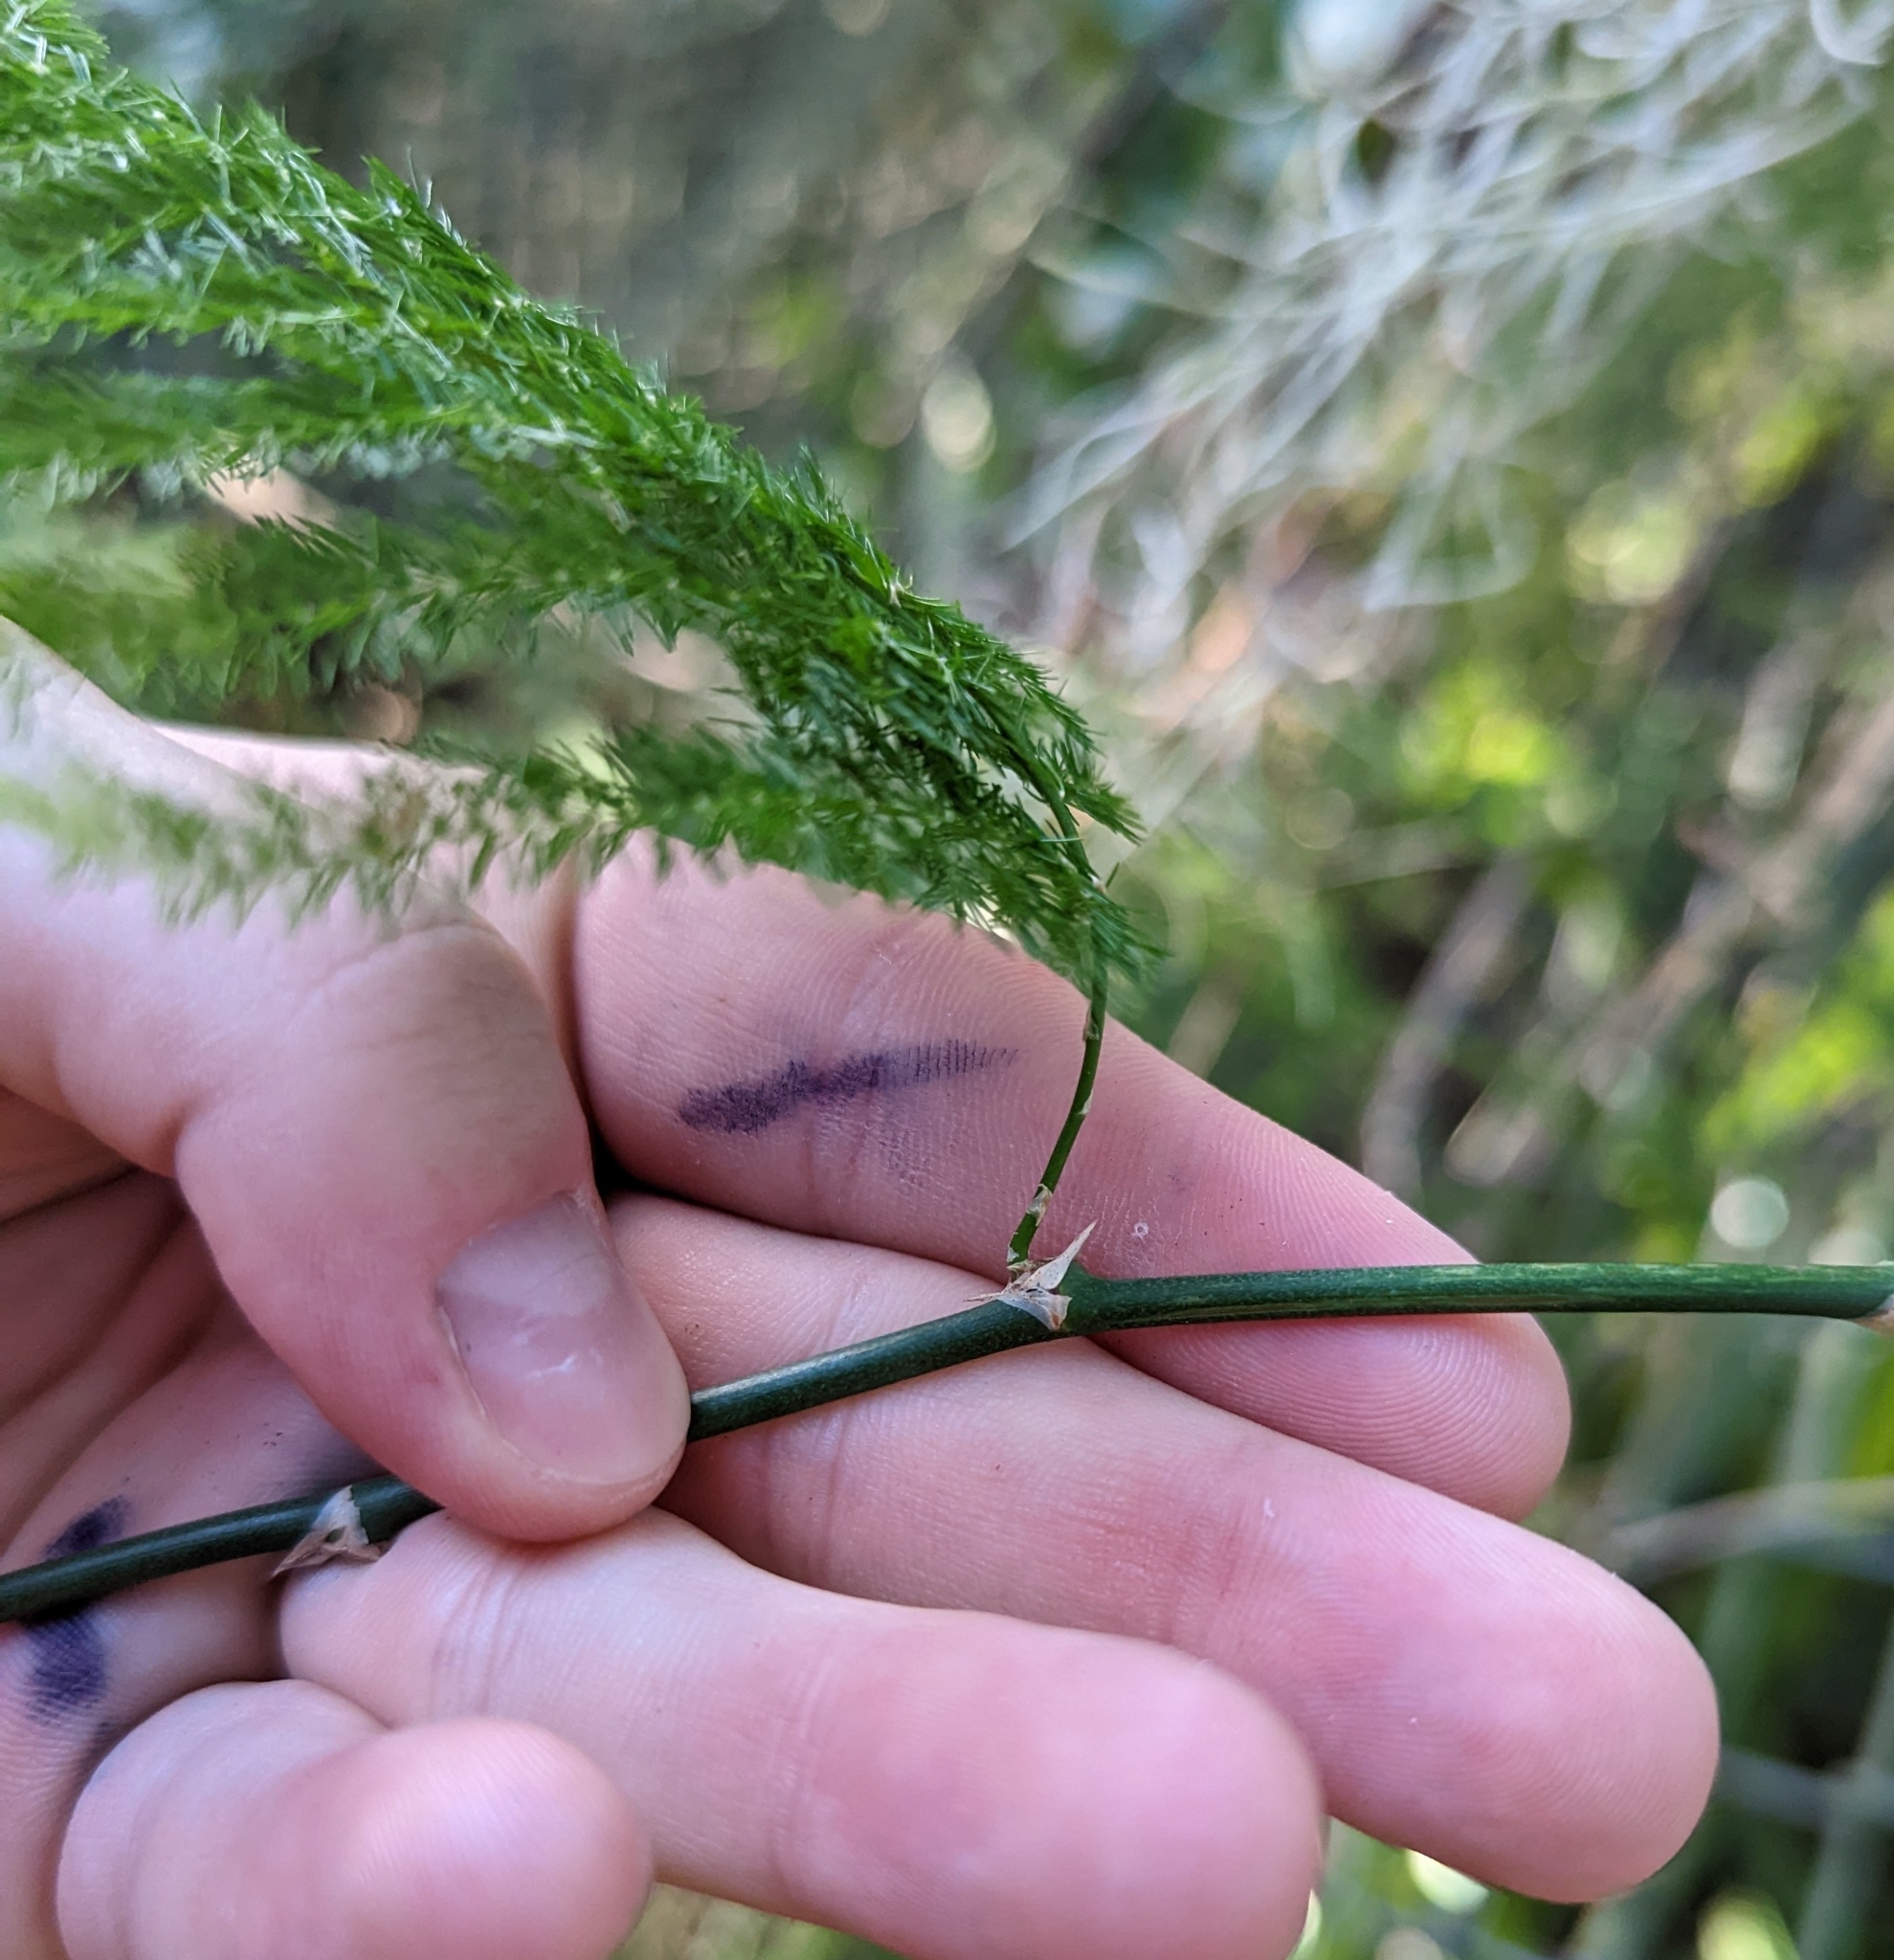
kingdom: Plantae
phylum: Tracheophyta
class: Liliopsida
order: Asparagales
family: Asparagaceae
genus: Asparagus
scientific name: Asparagus setaceus
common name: Common asparagus fern
